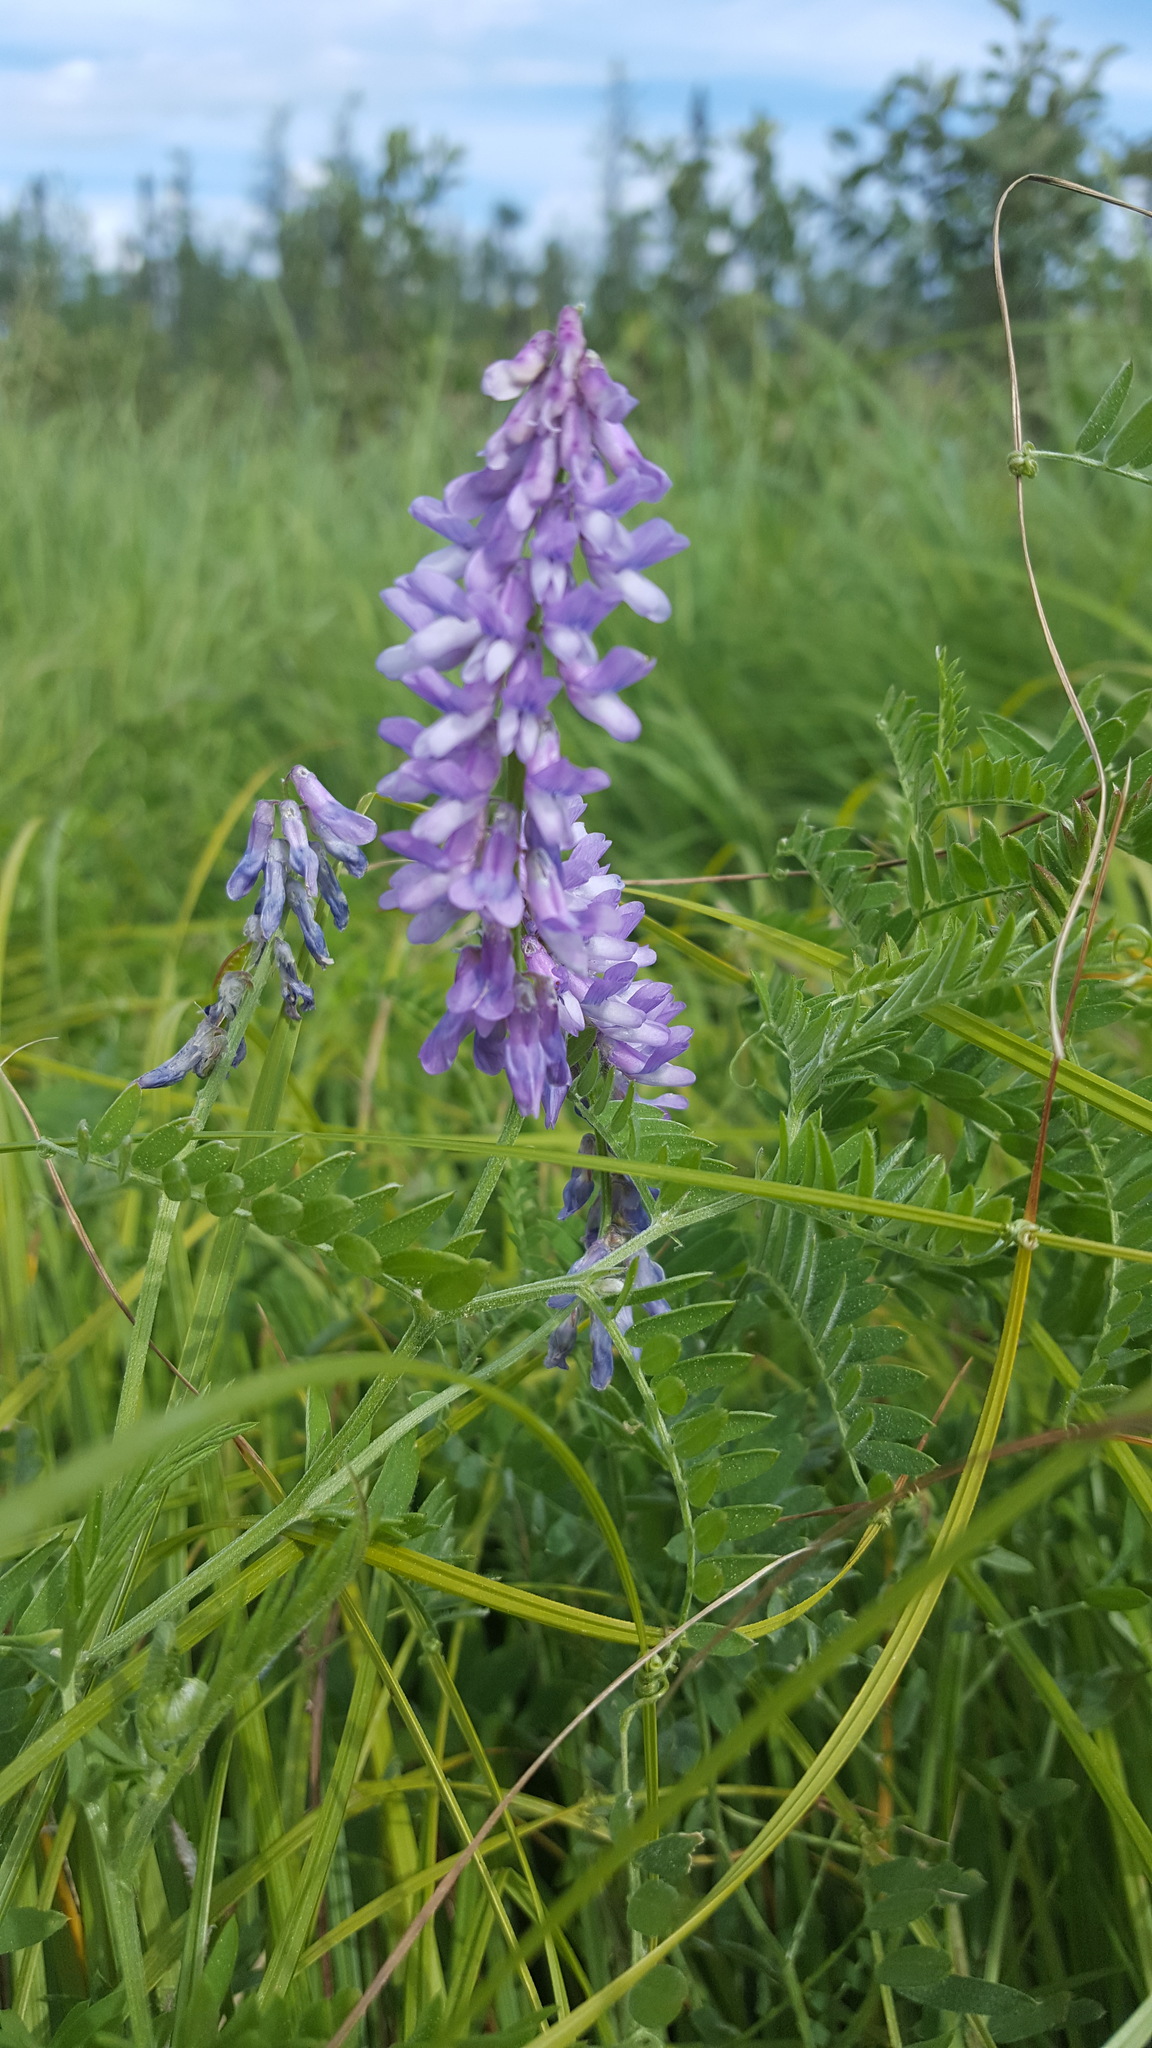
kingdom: Plantae
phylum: Tracheophyta
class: Magnoliopsida
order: Fabales
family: Fabaceae
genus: Vicia
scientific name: Vicia cracca
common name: Bird vetch
